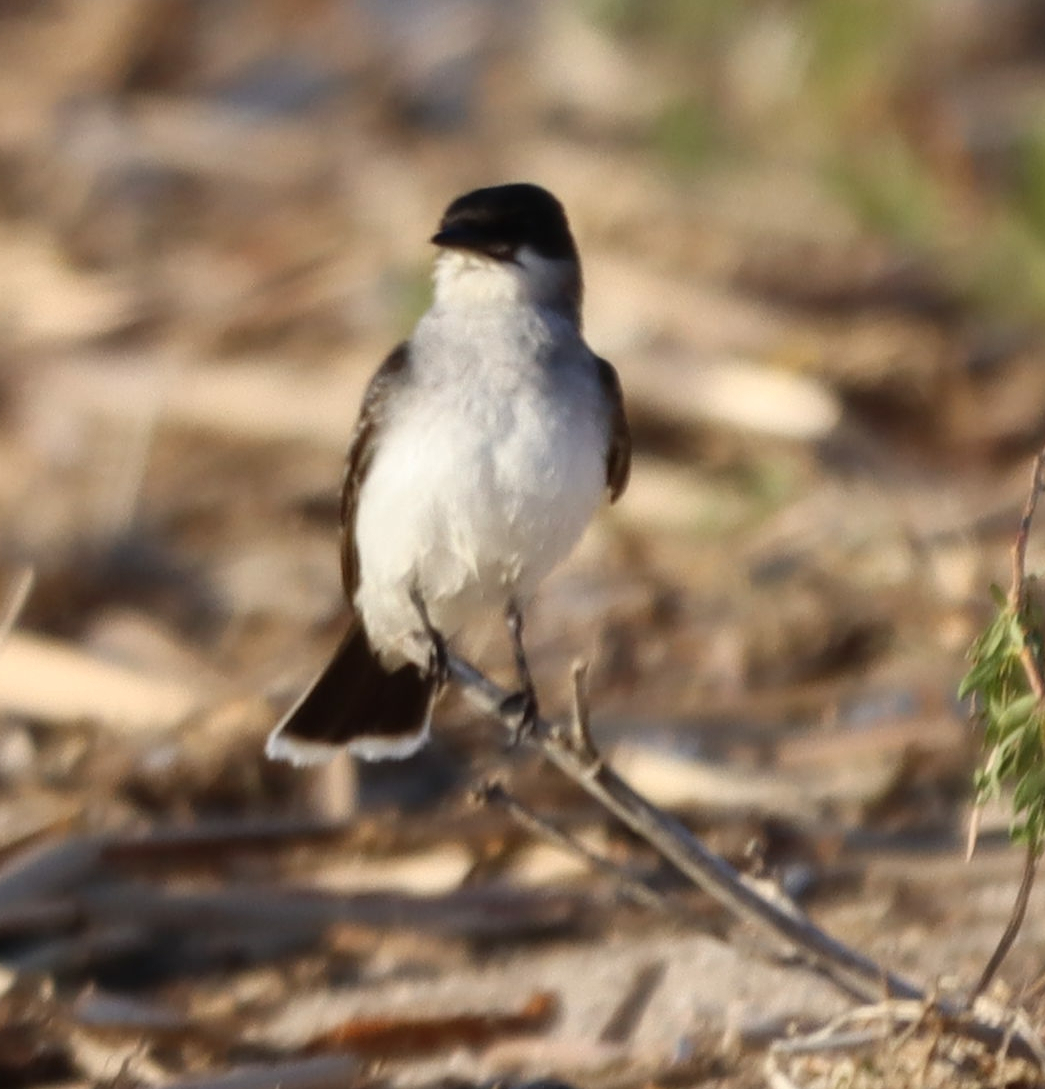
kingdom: Animalia
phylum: Chordata
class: Aves
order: Passeriformes
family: Tyrannidae
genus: Tyrannus
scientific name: Tyrannus tyrannus
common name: Eastern kingbird
